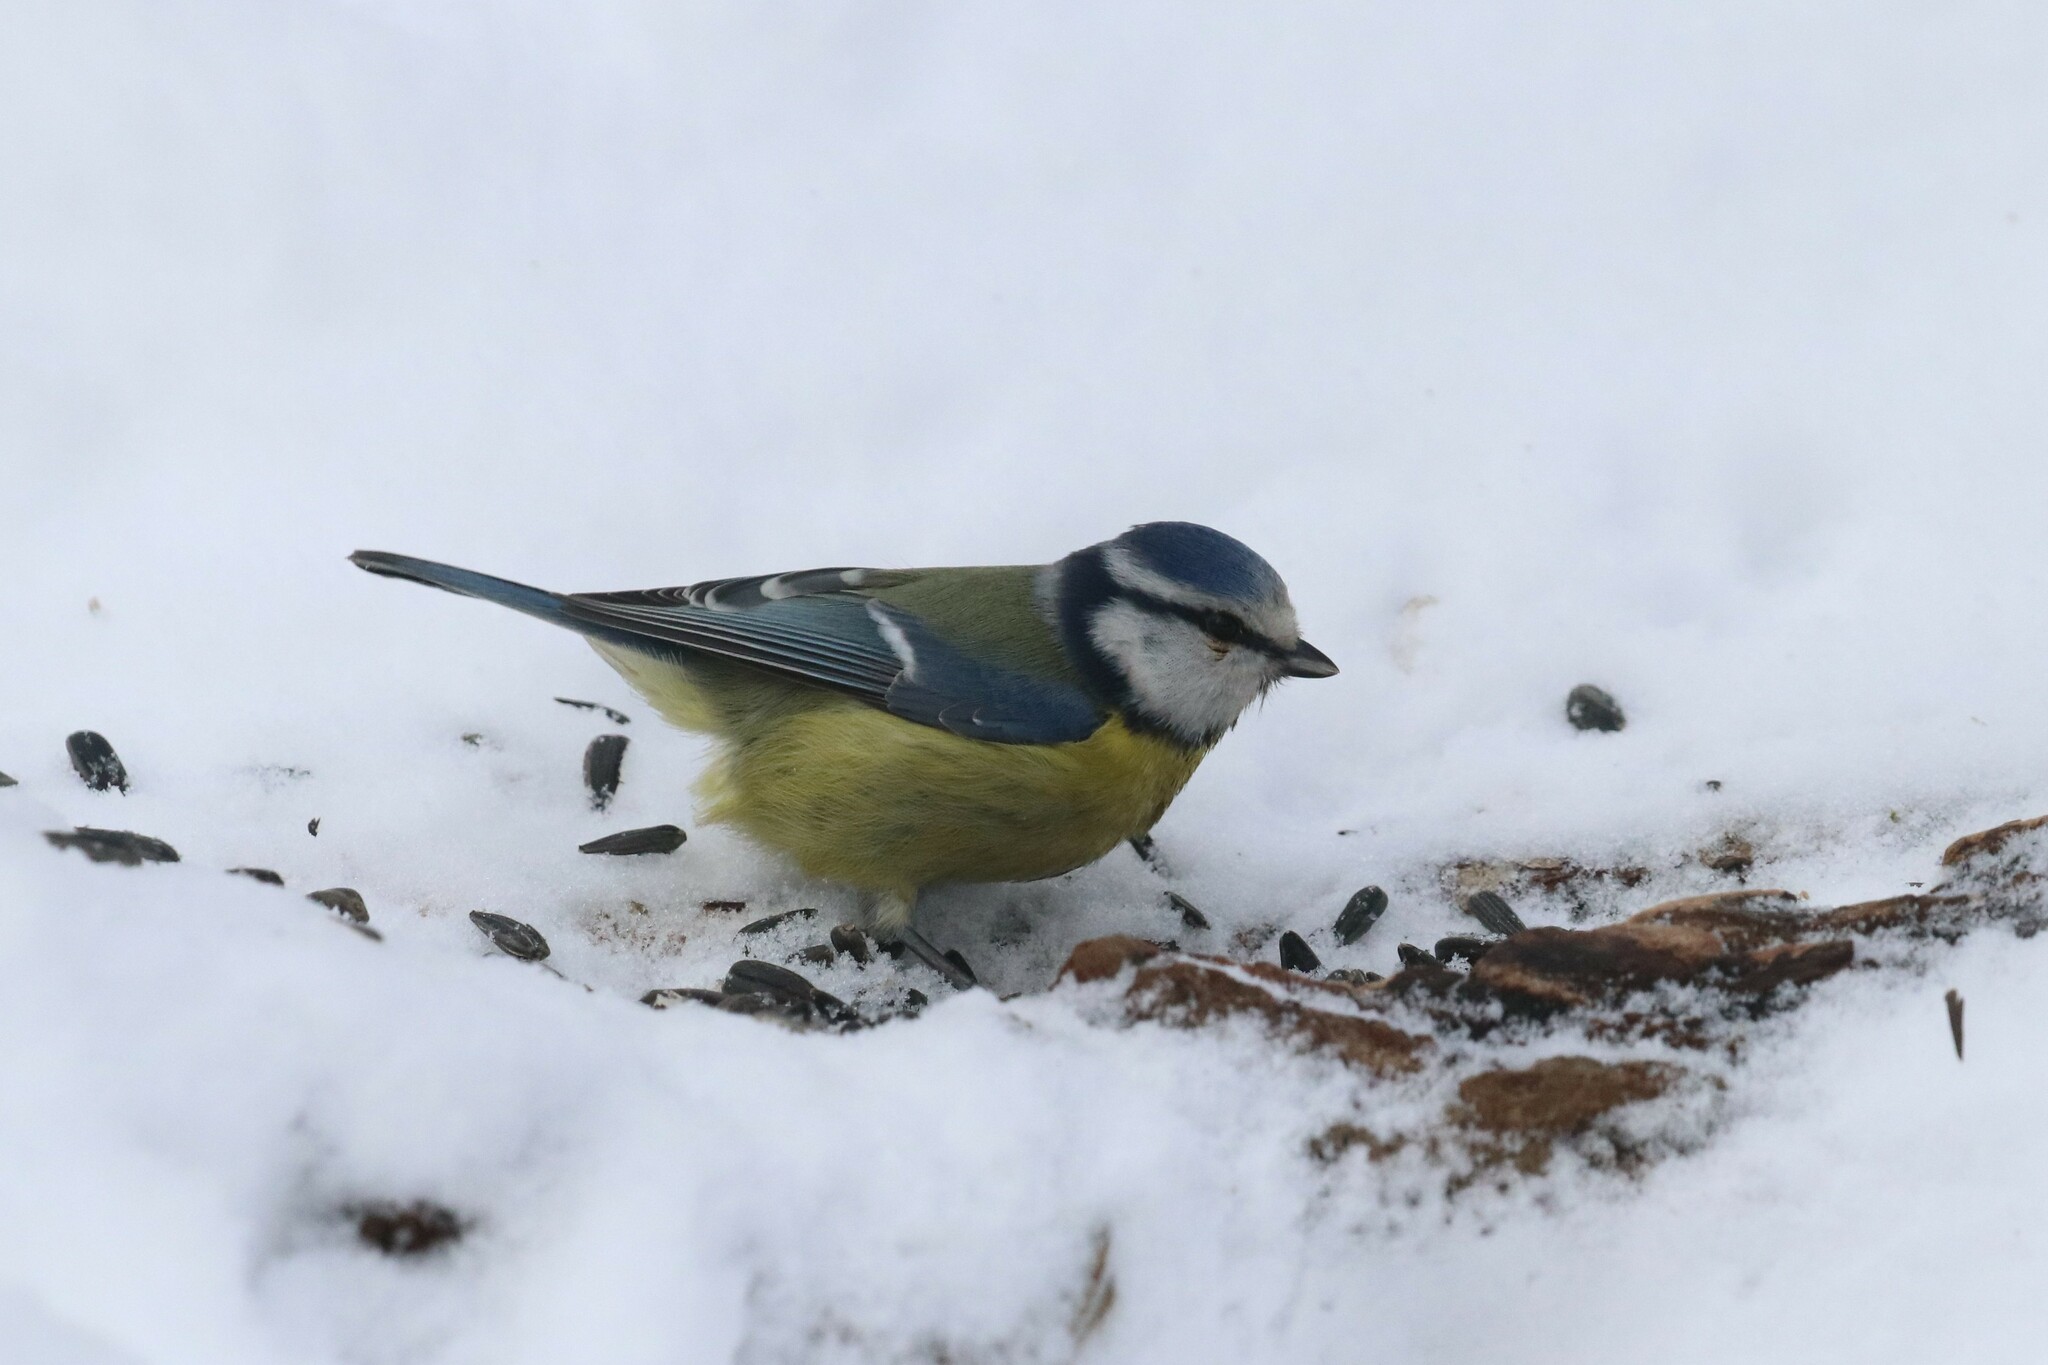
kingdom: Animalia
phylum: Chordata
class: Aves
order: Passeriformes
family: Paridae
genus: Cyanistes
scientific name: Cyanistes caeruleus
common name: Eurasian blue tit
